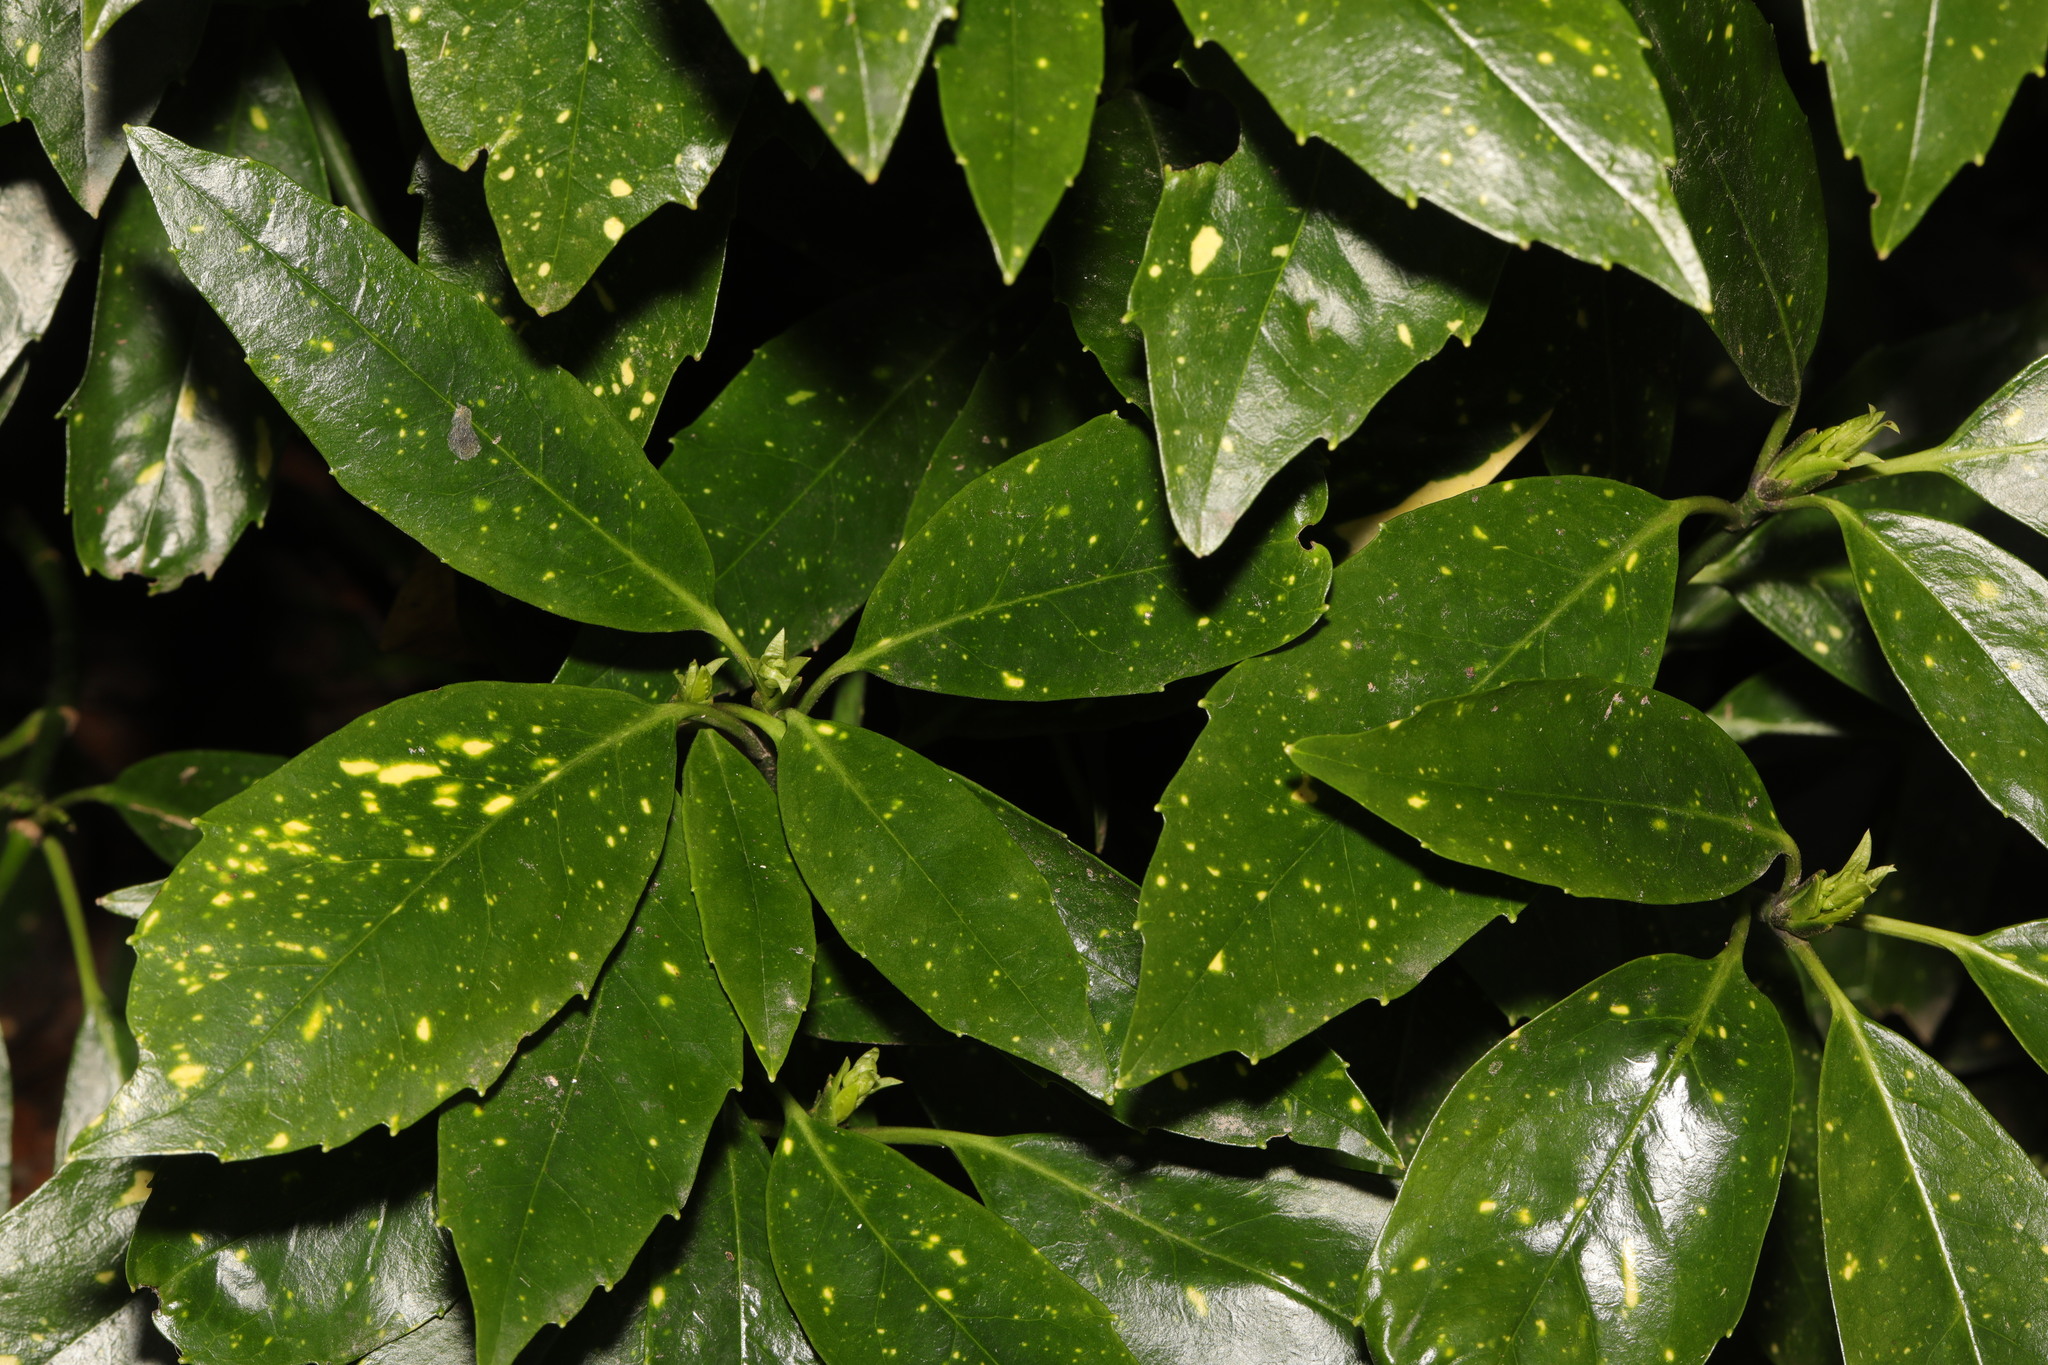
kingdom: Plantae
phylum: Tracheophyta
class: Magnoliopsida
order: Garryales
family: Garryaceae
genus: Aucuba
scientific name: Aucuba japonica
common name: Spotted-laurel
